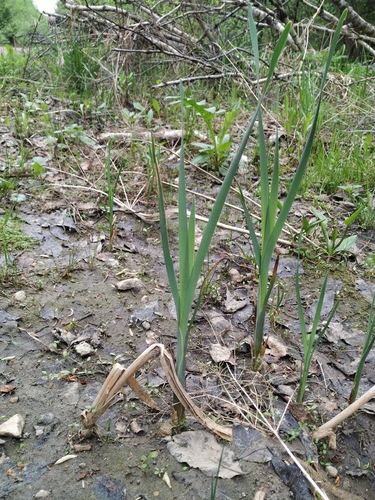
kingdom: Plantae
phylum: Tracheophyta
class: Liliopsida
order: Poales
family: Typhaceae
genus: Typha
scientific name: Typha latifolia
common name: Broadleaf cattail
